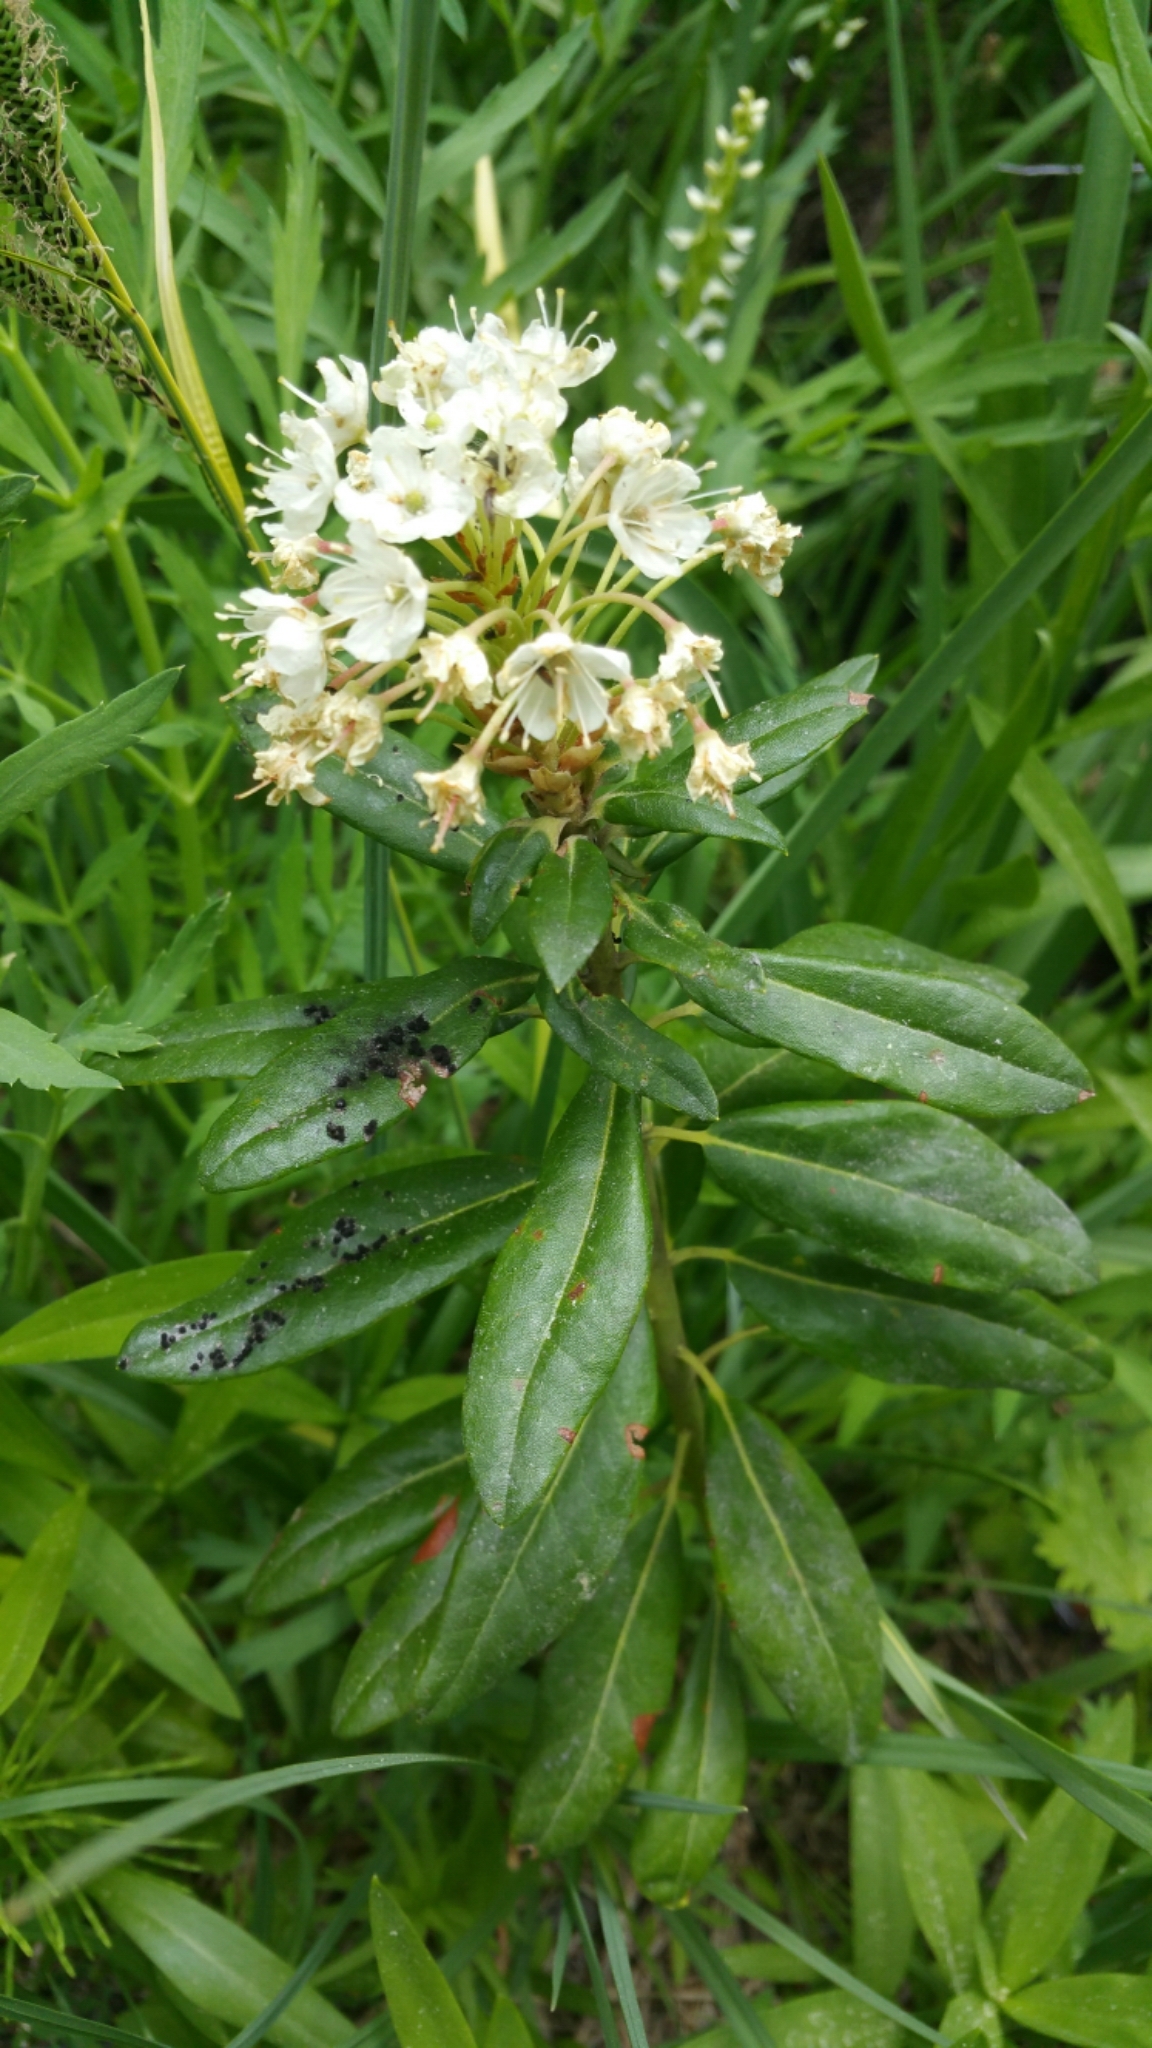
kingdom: Plantae
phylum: Tracheophyta
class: Magnoliopsida
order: Ericales
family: Ericaceae
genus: Rhododendron
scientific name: Rhododendron columbianum
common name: Western labrador tea
